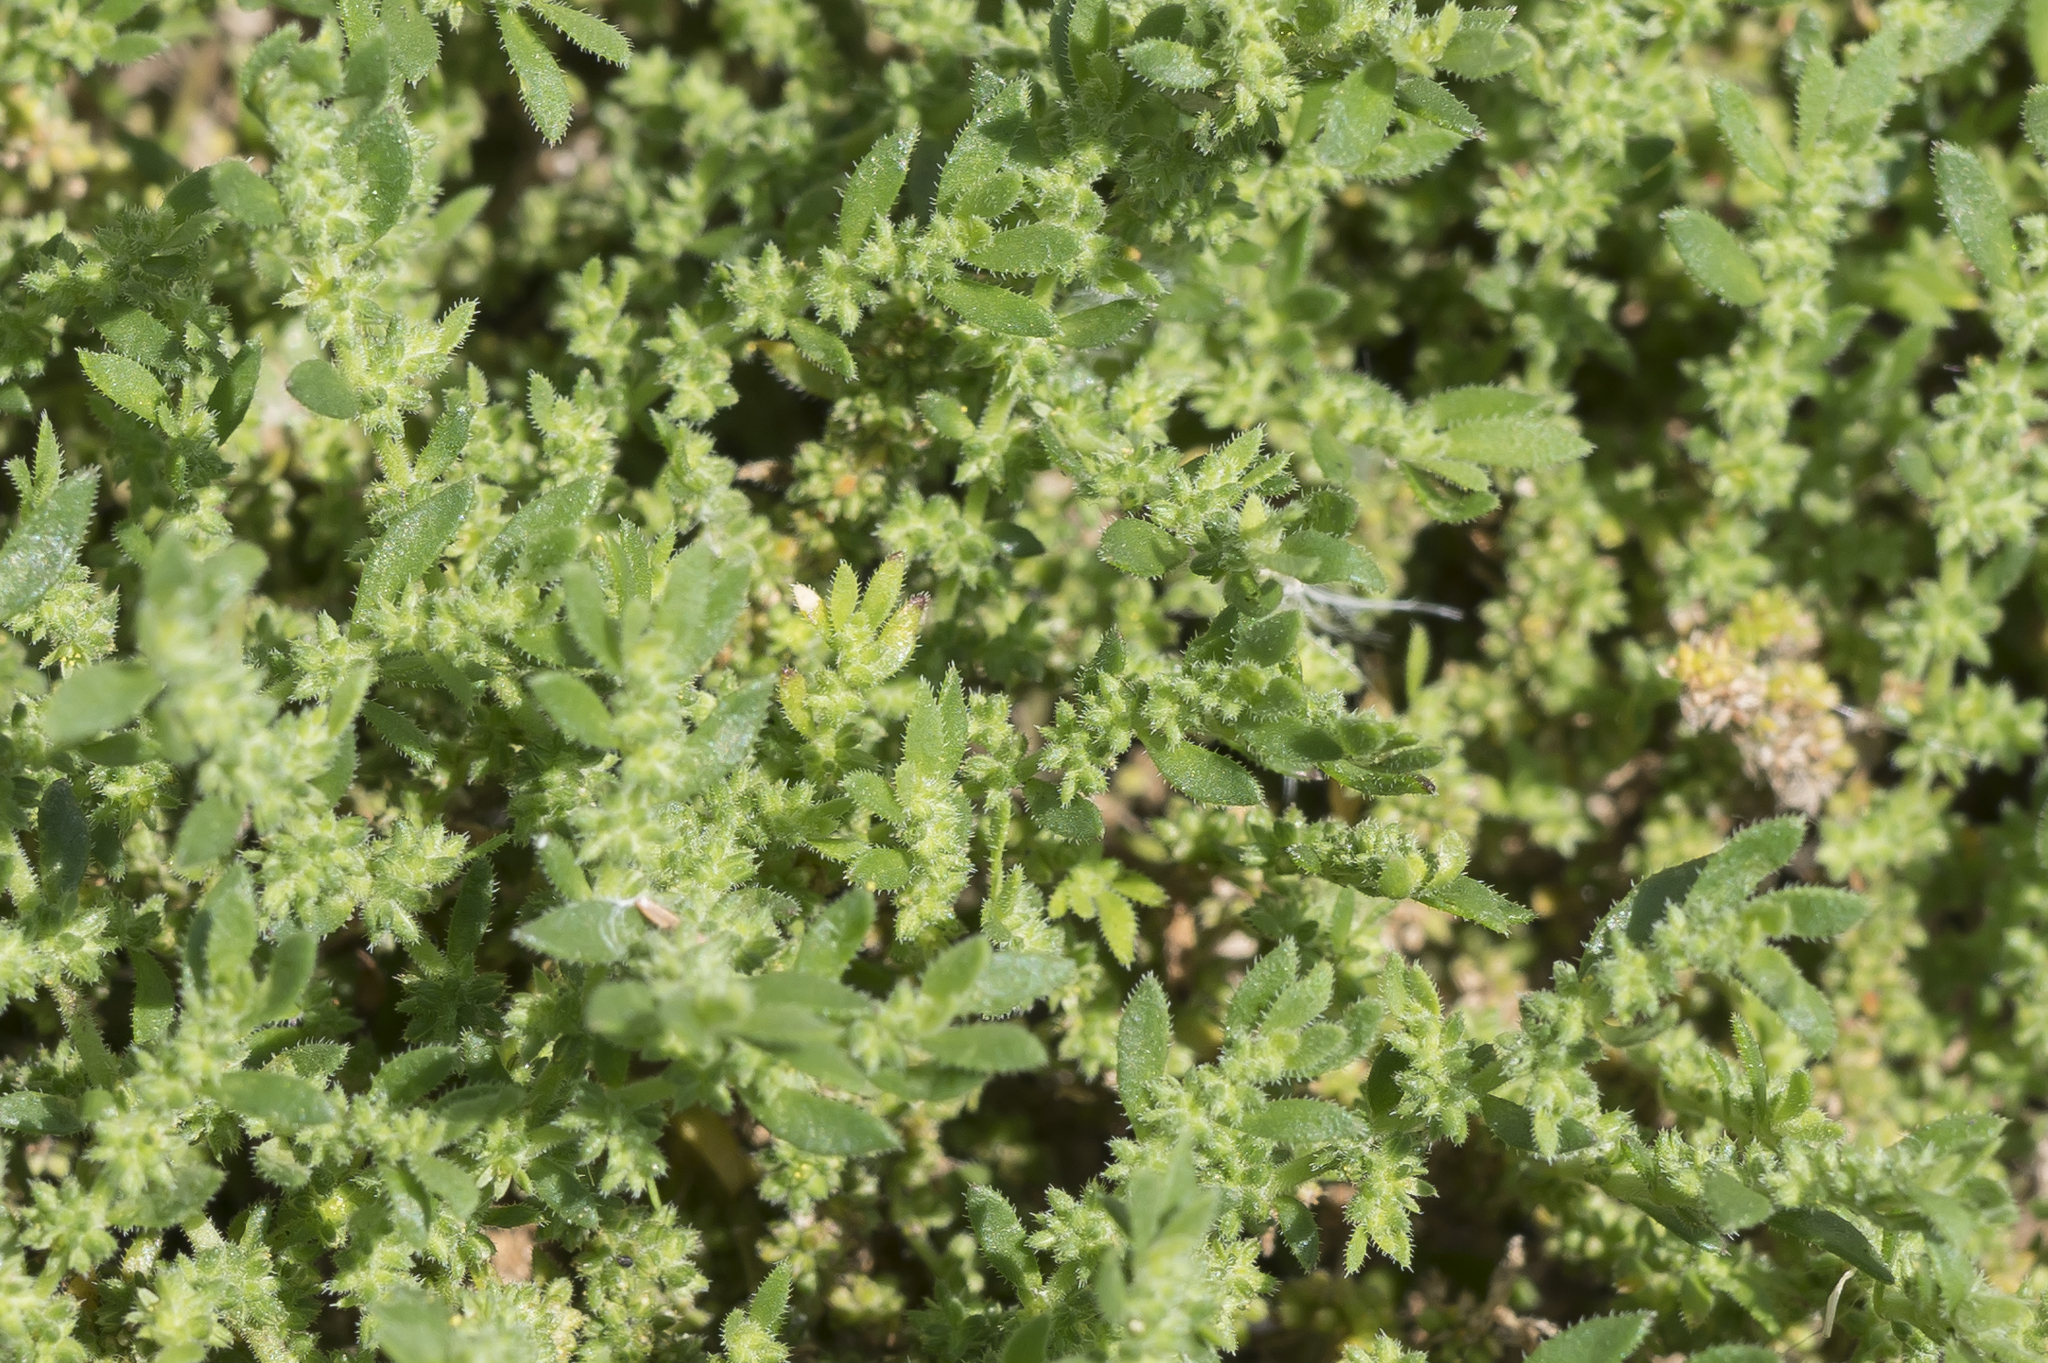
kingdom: Plantae
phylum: Tracheophyta
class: Magnoliopsida
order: Caryophyllales
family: Caryophyllaceae
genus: Herniaria
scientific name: Herniaria hirsuta
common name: Hairy rupturewort
